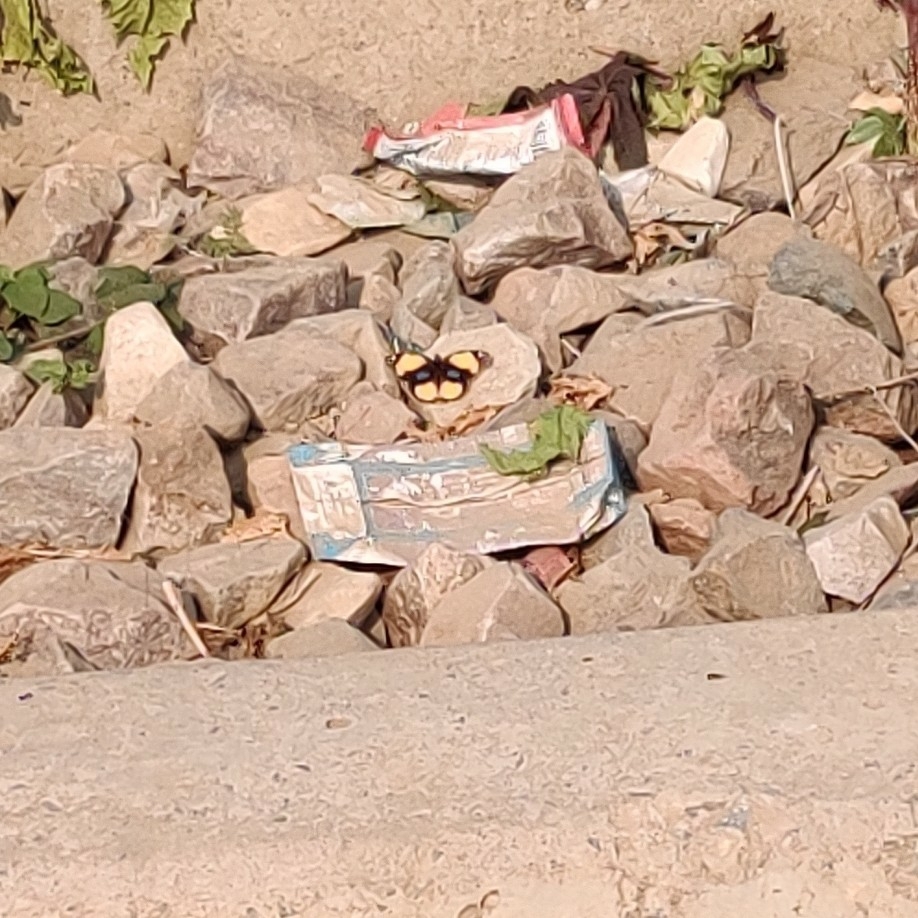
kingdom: Animalia
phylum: Arthropoda
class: Insecta
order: Lepidoptera
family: Nymphalidae
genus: Junonia
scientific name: Junonia hierta
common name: Yellow pansy
